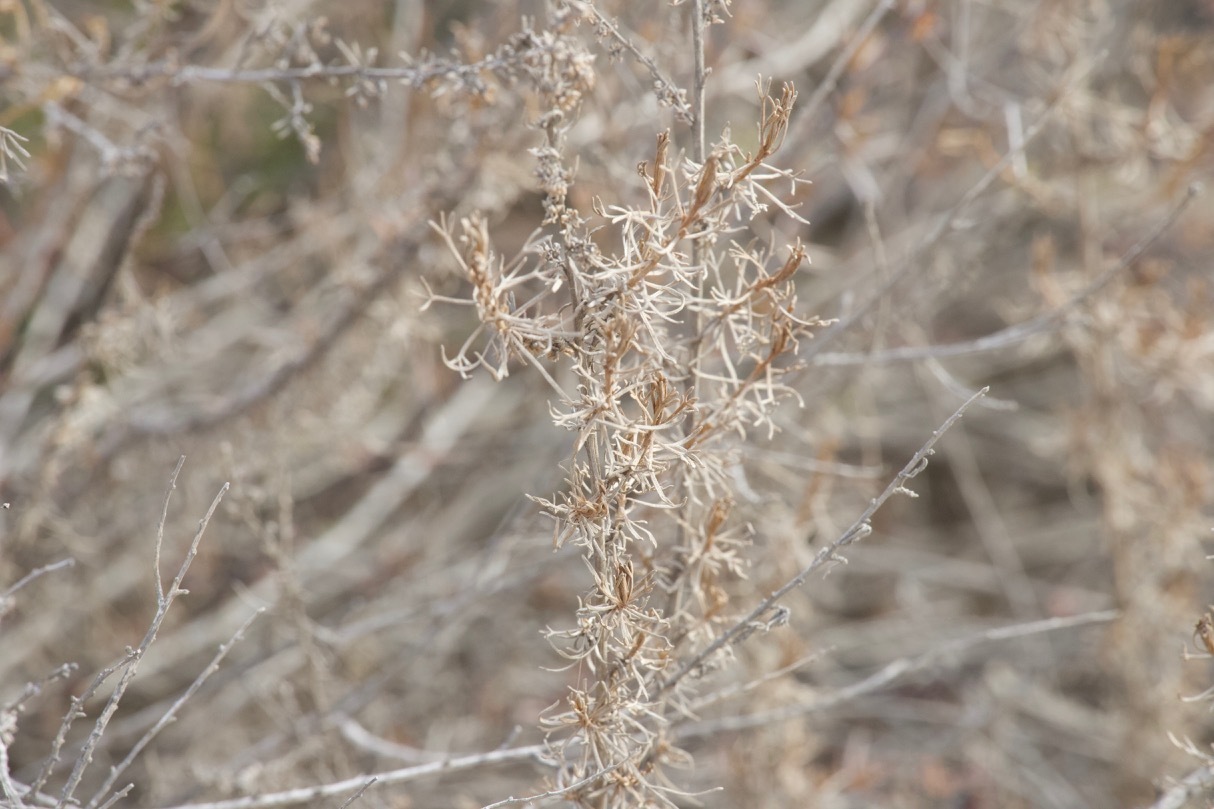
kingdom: Plantae
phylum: Tracheophyta
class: Magnoliopsida
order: Asterales
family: Asteraceae
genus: Artemisia
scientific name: Artemisia californica
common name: California sagebrush
